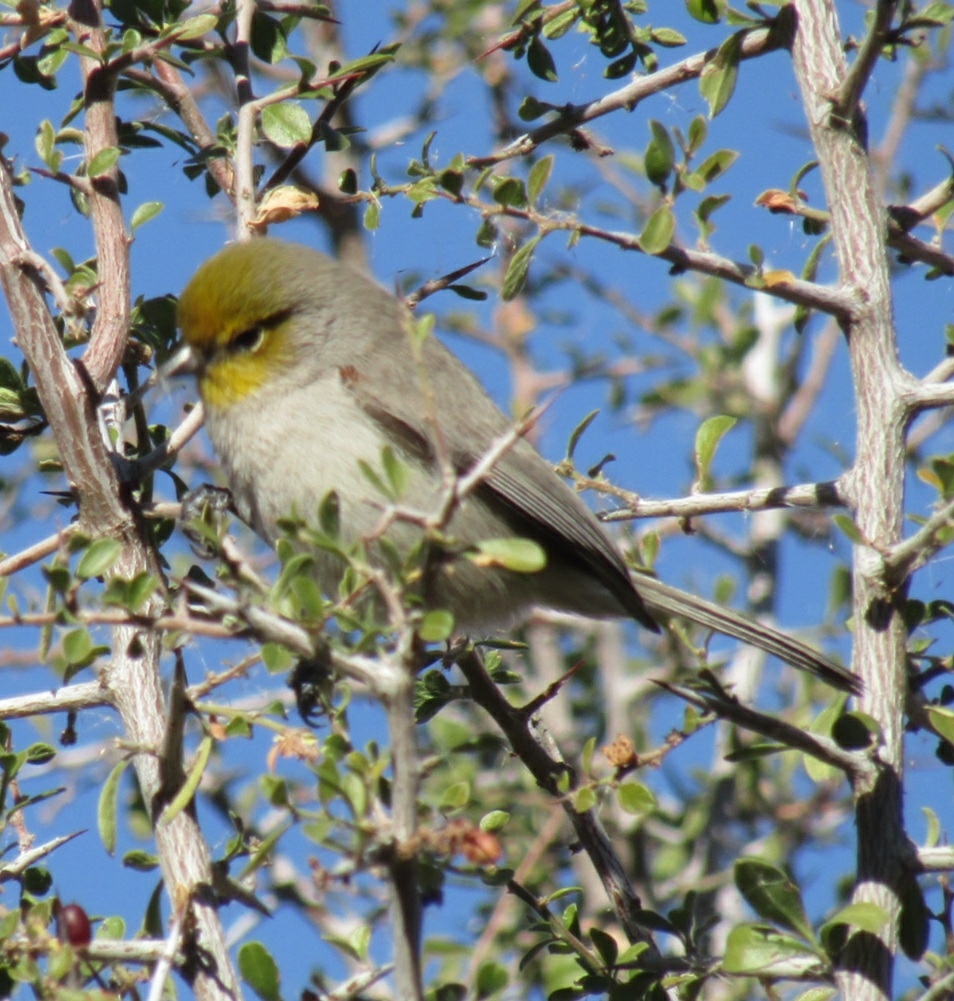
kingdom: Animalia
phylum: Chordata
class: Aves
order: Passeriformes
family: Remizidae
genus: Auriparus
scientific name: Auriparus flaviceps
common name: Verdin
